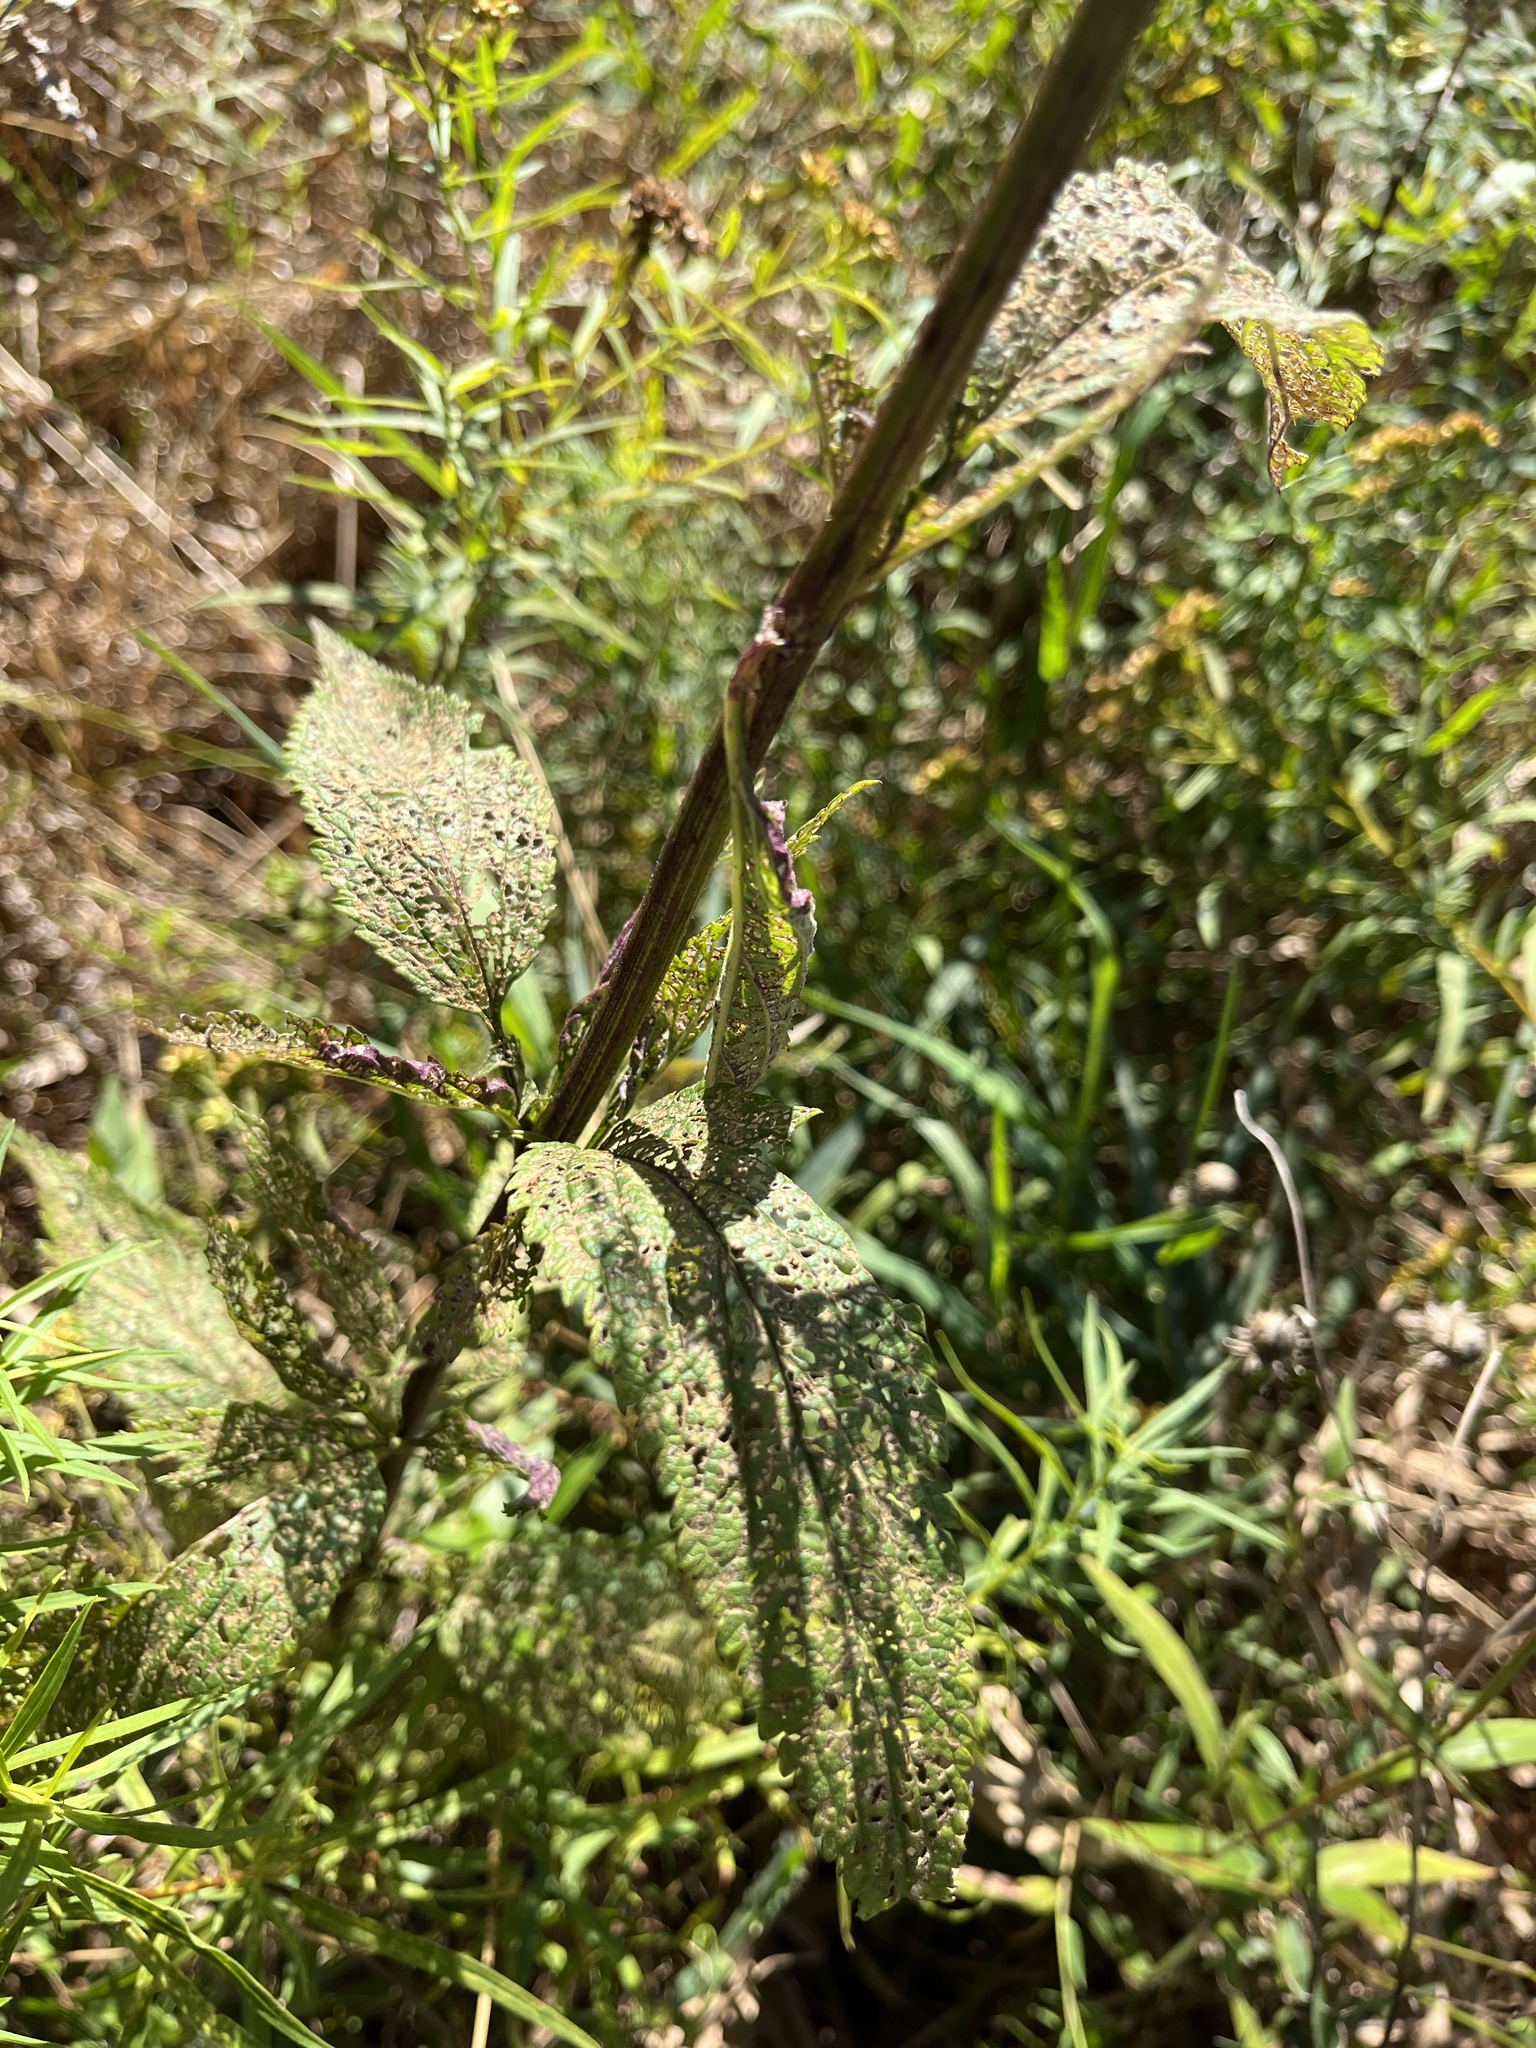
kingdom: Plantae
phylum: Tracheophyta
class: Magnoliopsida
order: Lamiales
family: Verbenaceae
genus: Verbena
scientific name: Verbena hastata
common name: American blue vervain
